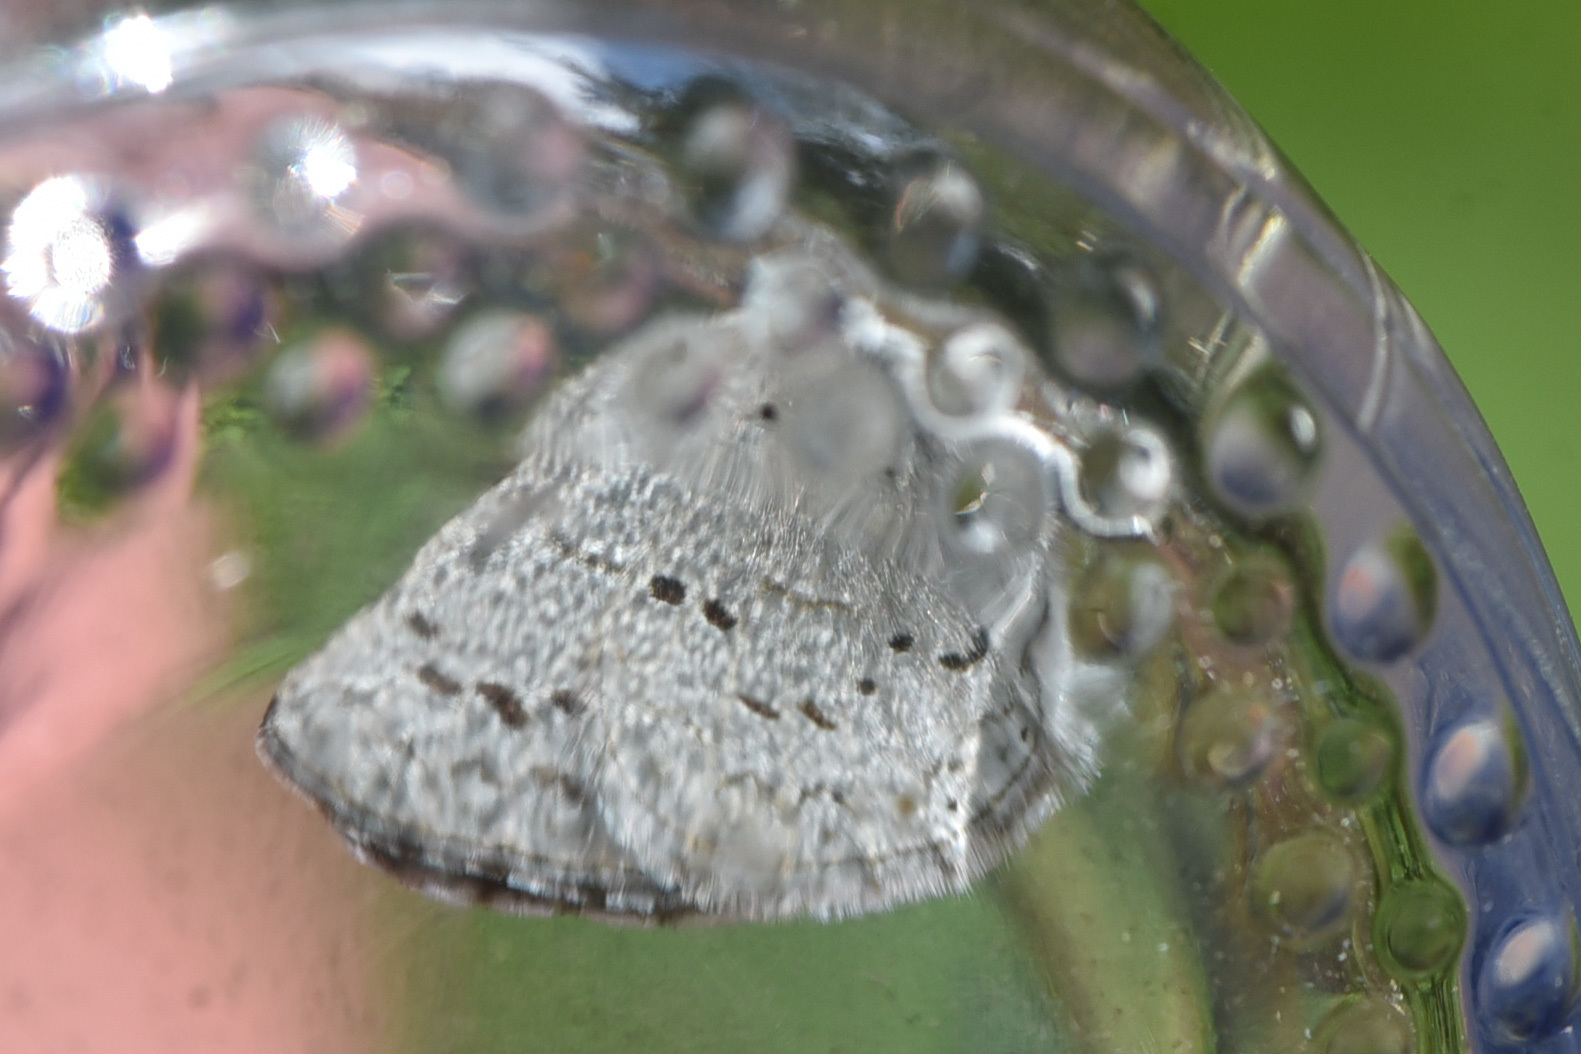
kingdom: Animalia
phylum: Arthropoda
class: Insecta
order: Lepidoptera
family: Lycaenidae
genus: Celastrina
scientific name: Celastrina ladon
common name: Spring azure
